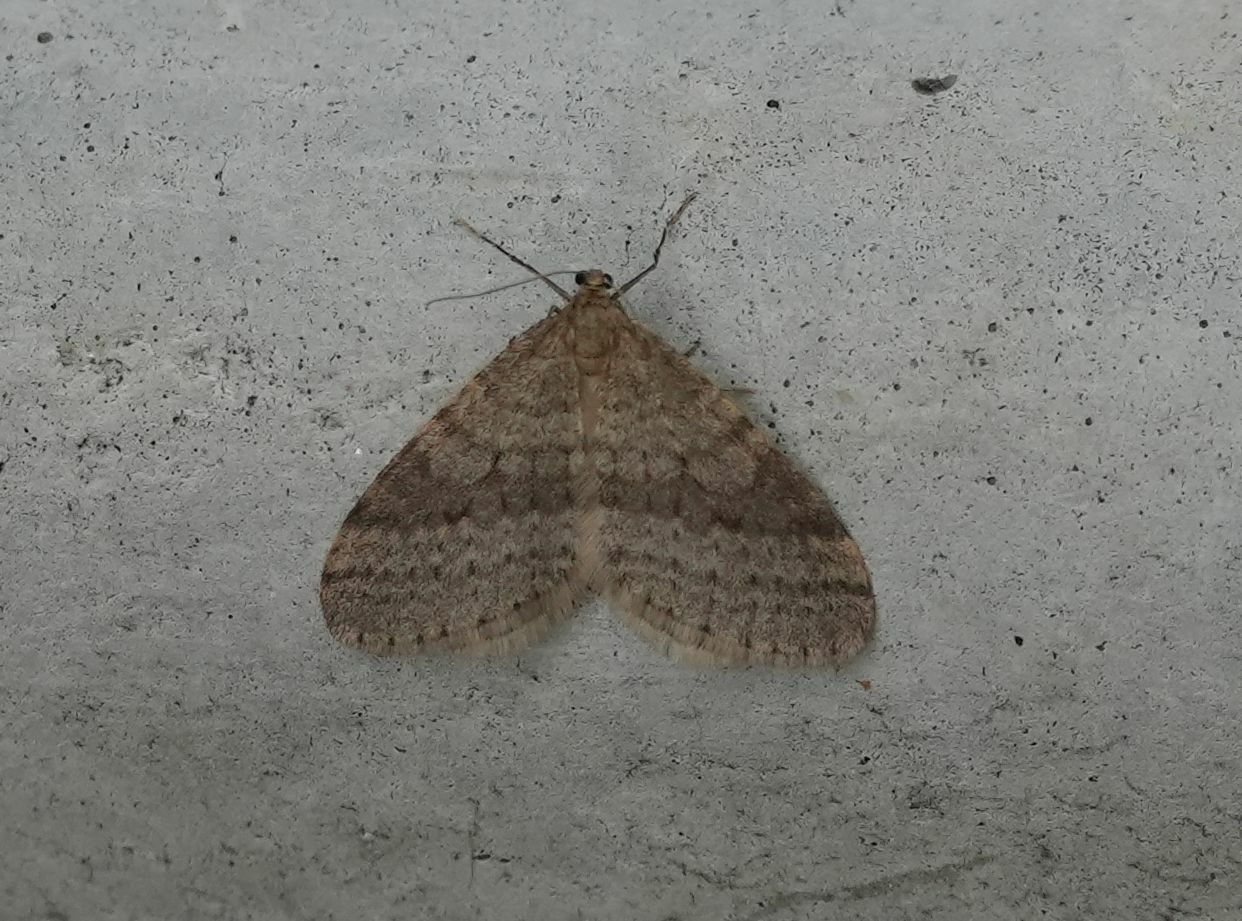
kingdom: Animalia
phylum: Arthropoda
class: Insecta
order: Lepidoptera
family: Geometridae
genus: Operophtera
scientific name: Operophtera bruceata
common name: Bruce spanworm
